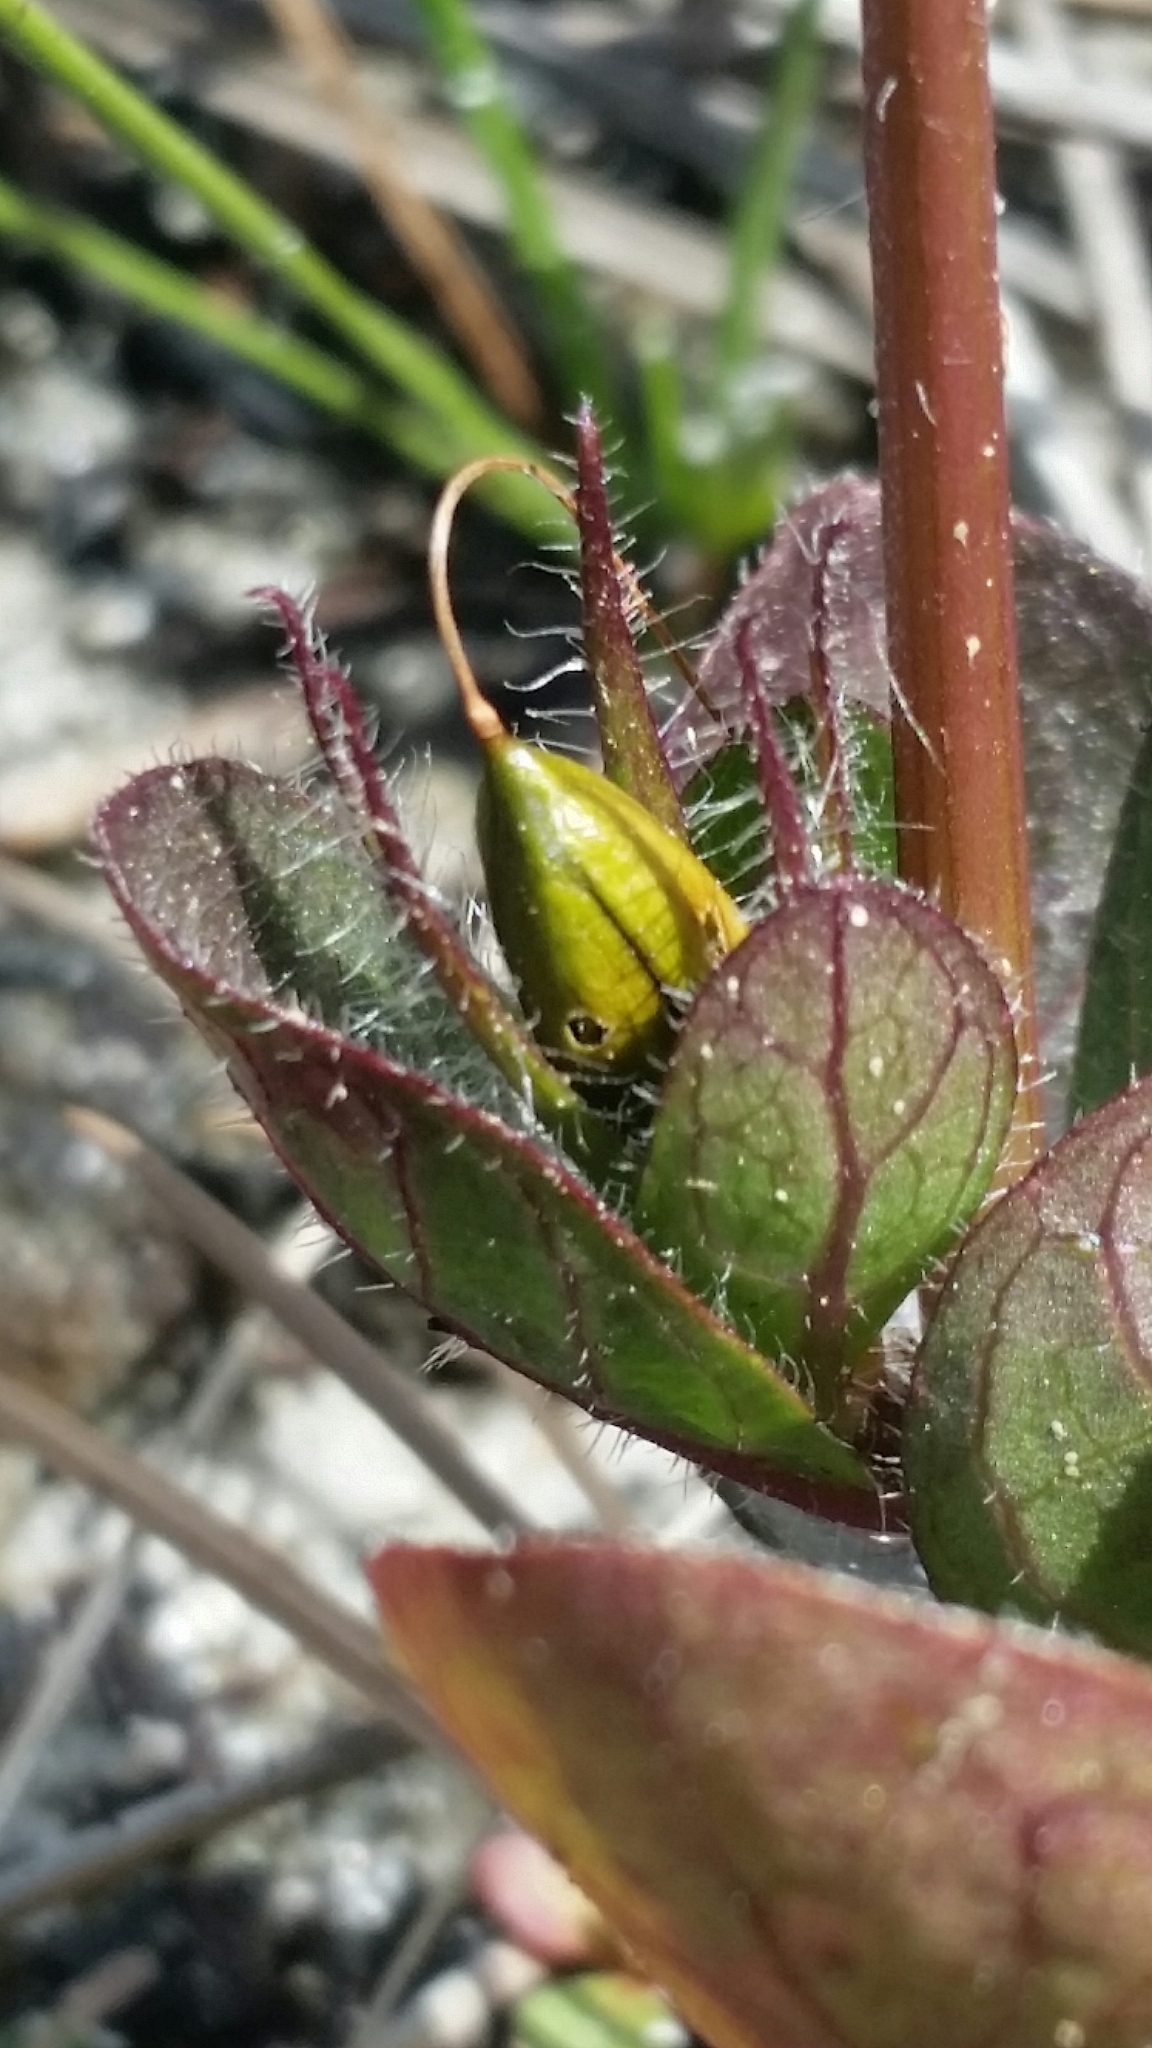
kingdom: Plantae
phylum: Tracheophyta
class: Magnoliopsida
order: Lamiales
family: Acanthaceae
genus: Ruellia
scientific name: Ruellia caroliniensis
